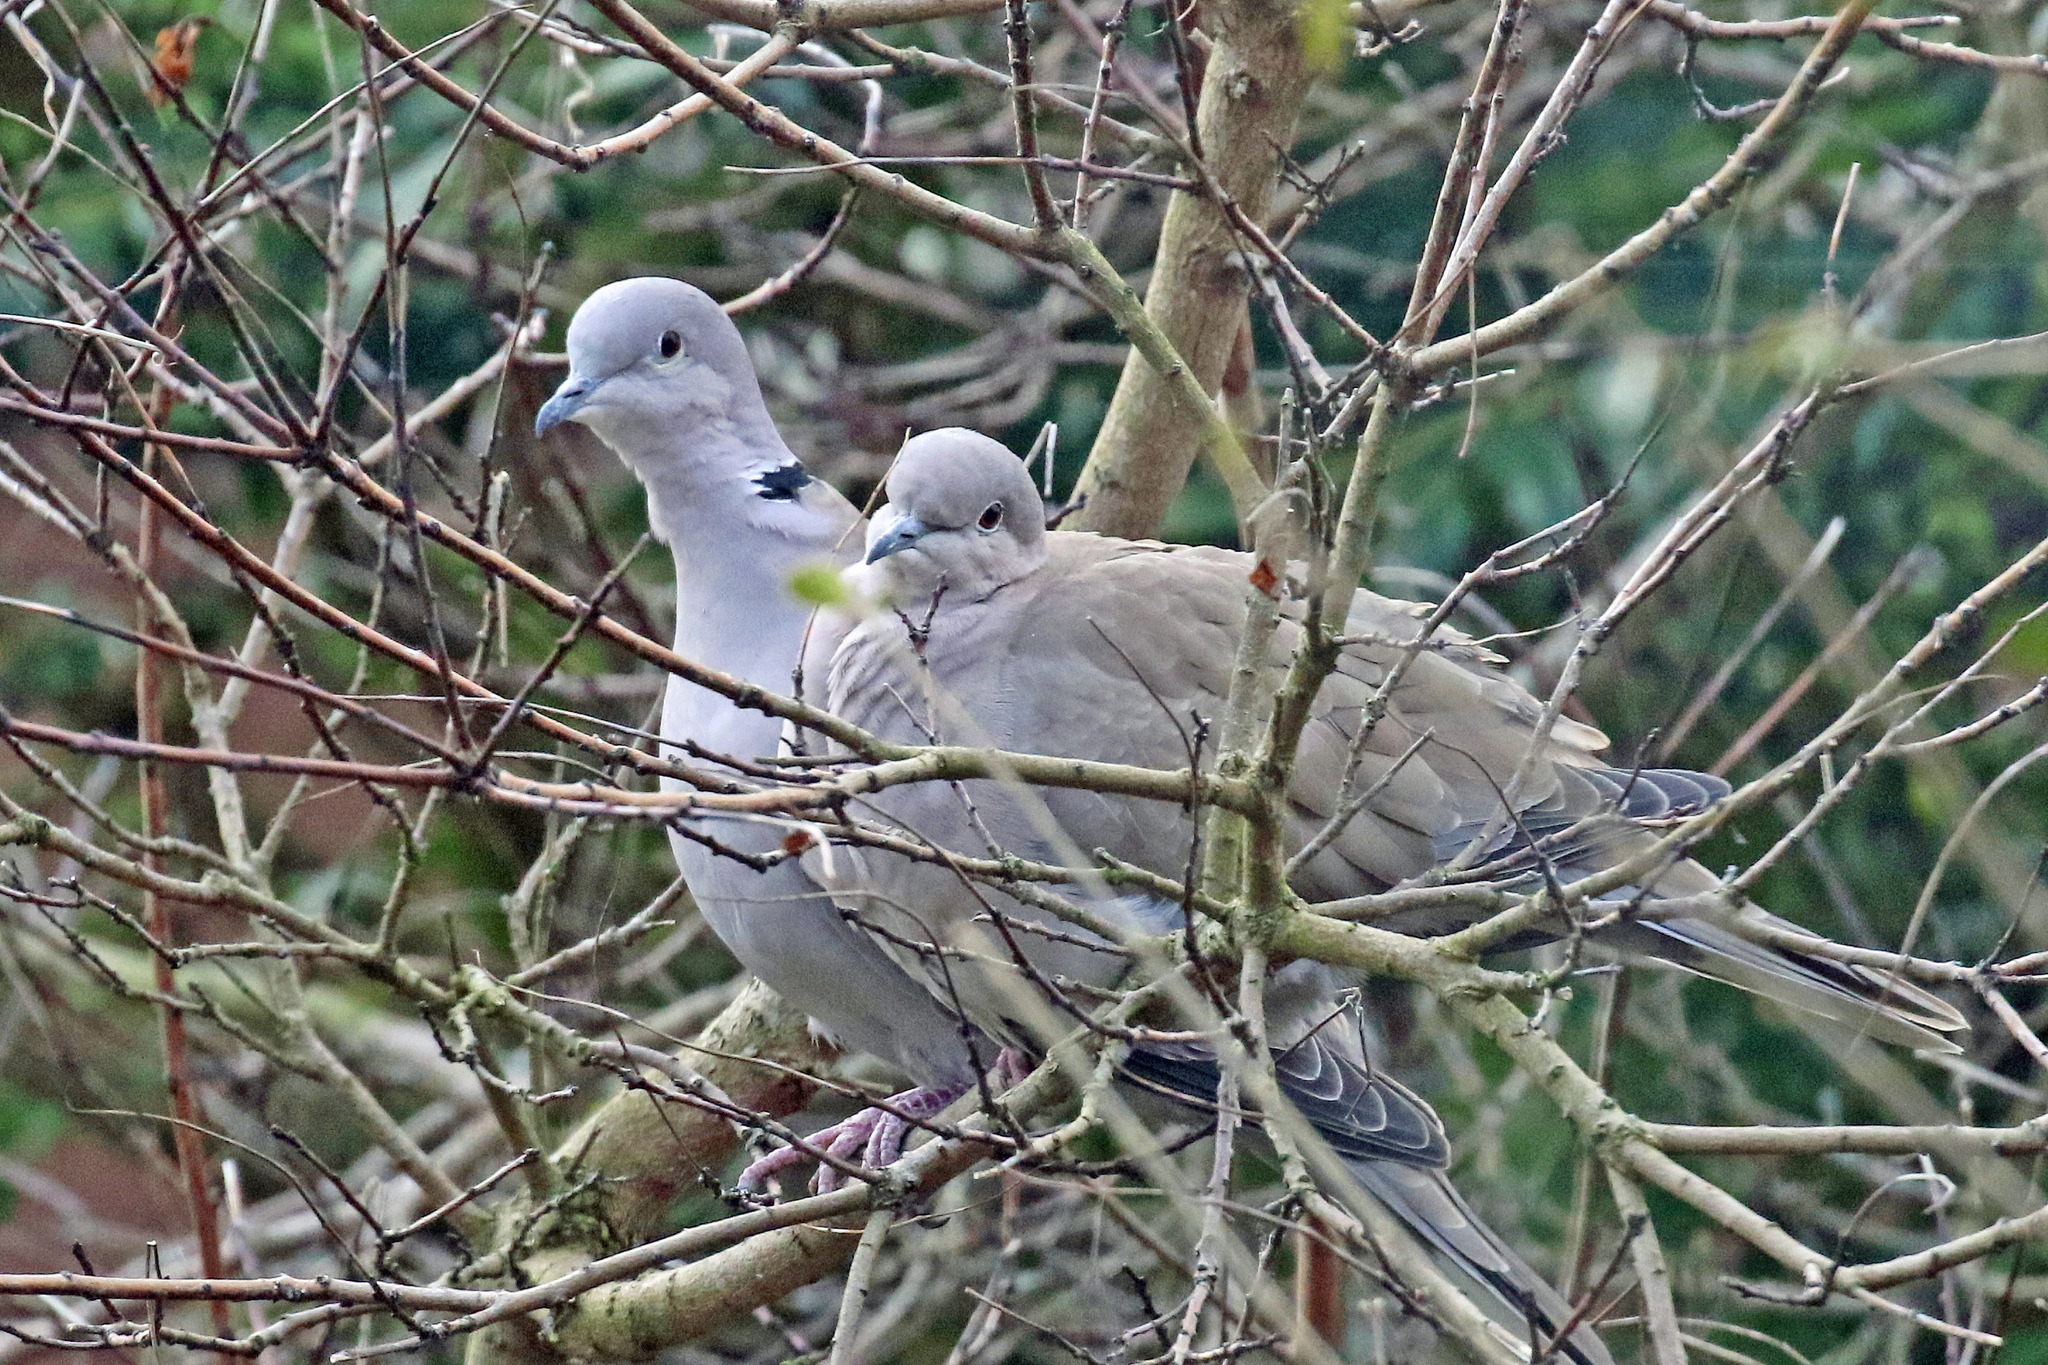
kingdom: Animalia
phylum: Chordata
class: Aves
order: Columbiformes
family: Columbidae
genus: Streptopelia
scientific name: Streptopelia decaocto
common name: Eurasian collared dove
